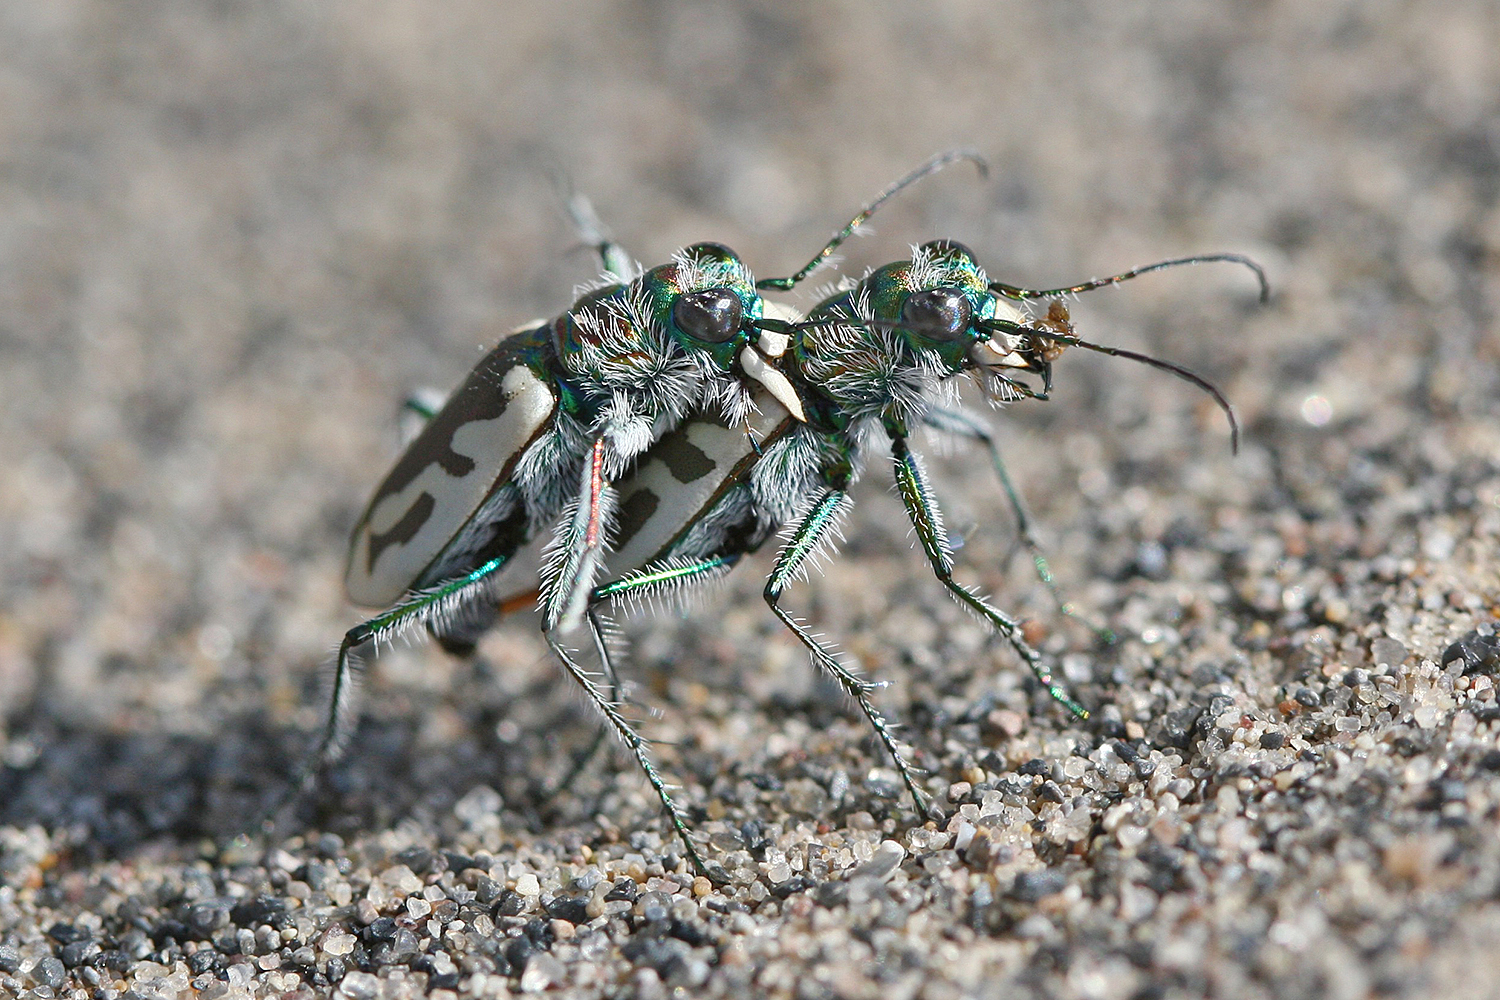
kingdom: Animalia
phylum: Arthropoda
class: Insecta
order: Coleoptera
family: Carabidae
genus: Cicindela
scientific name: Cicindela arenicola
